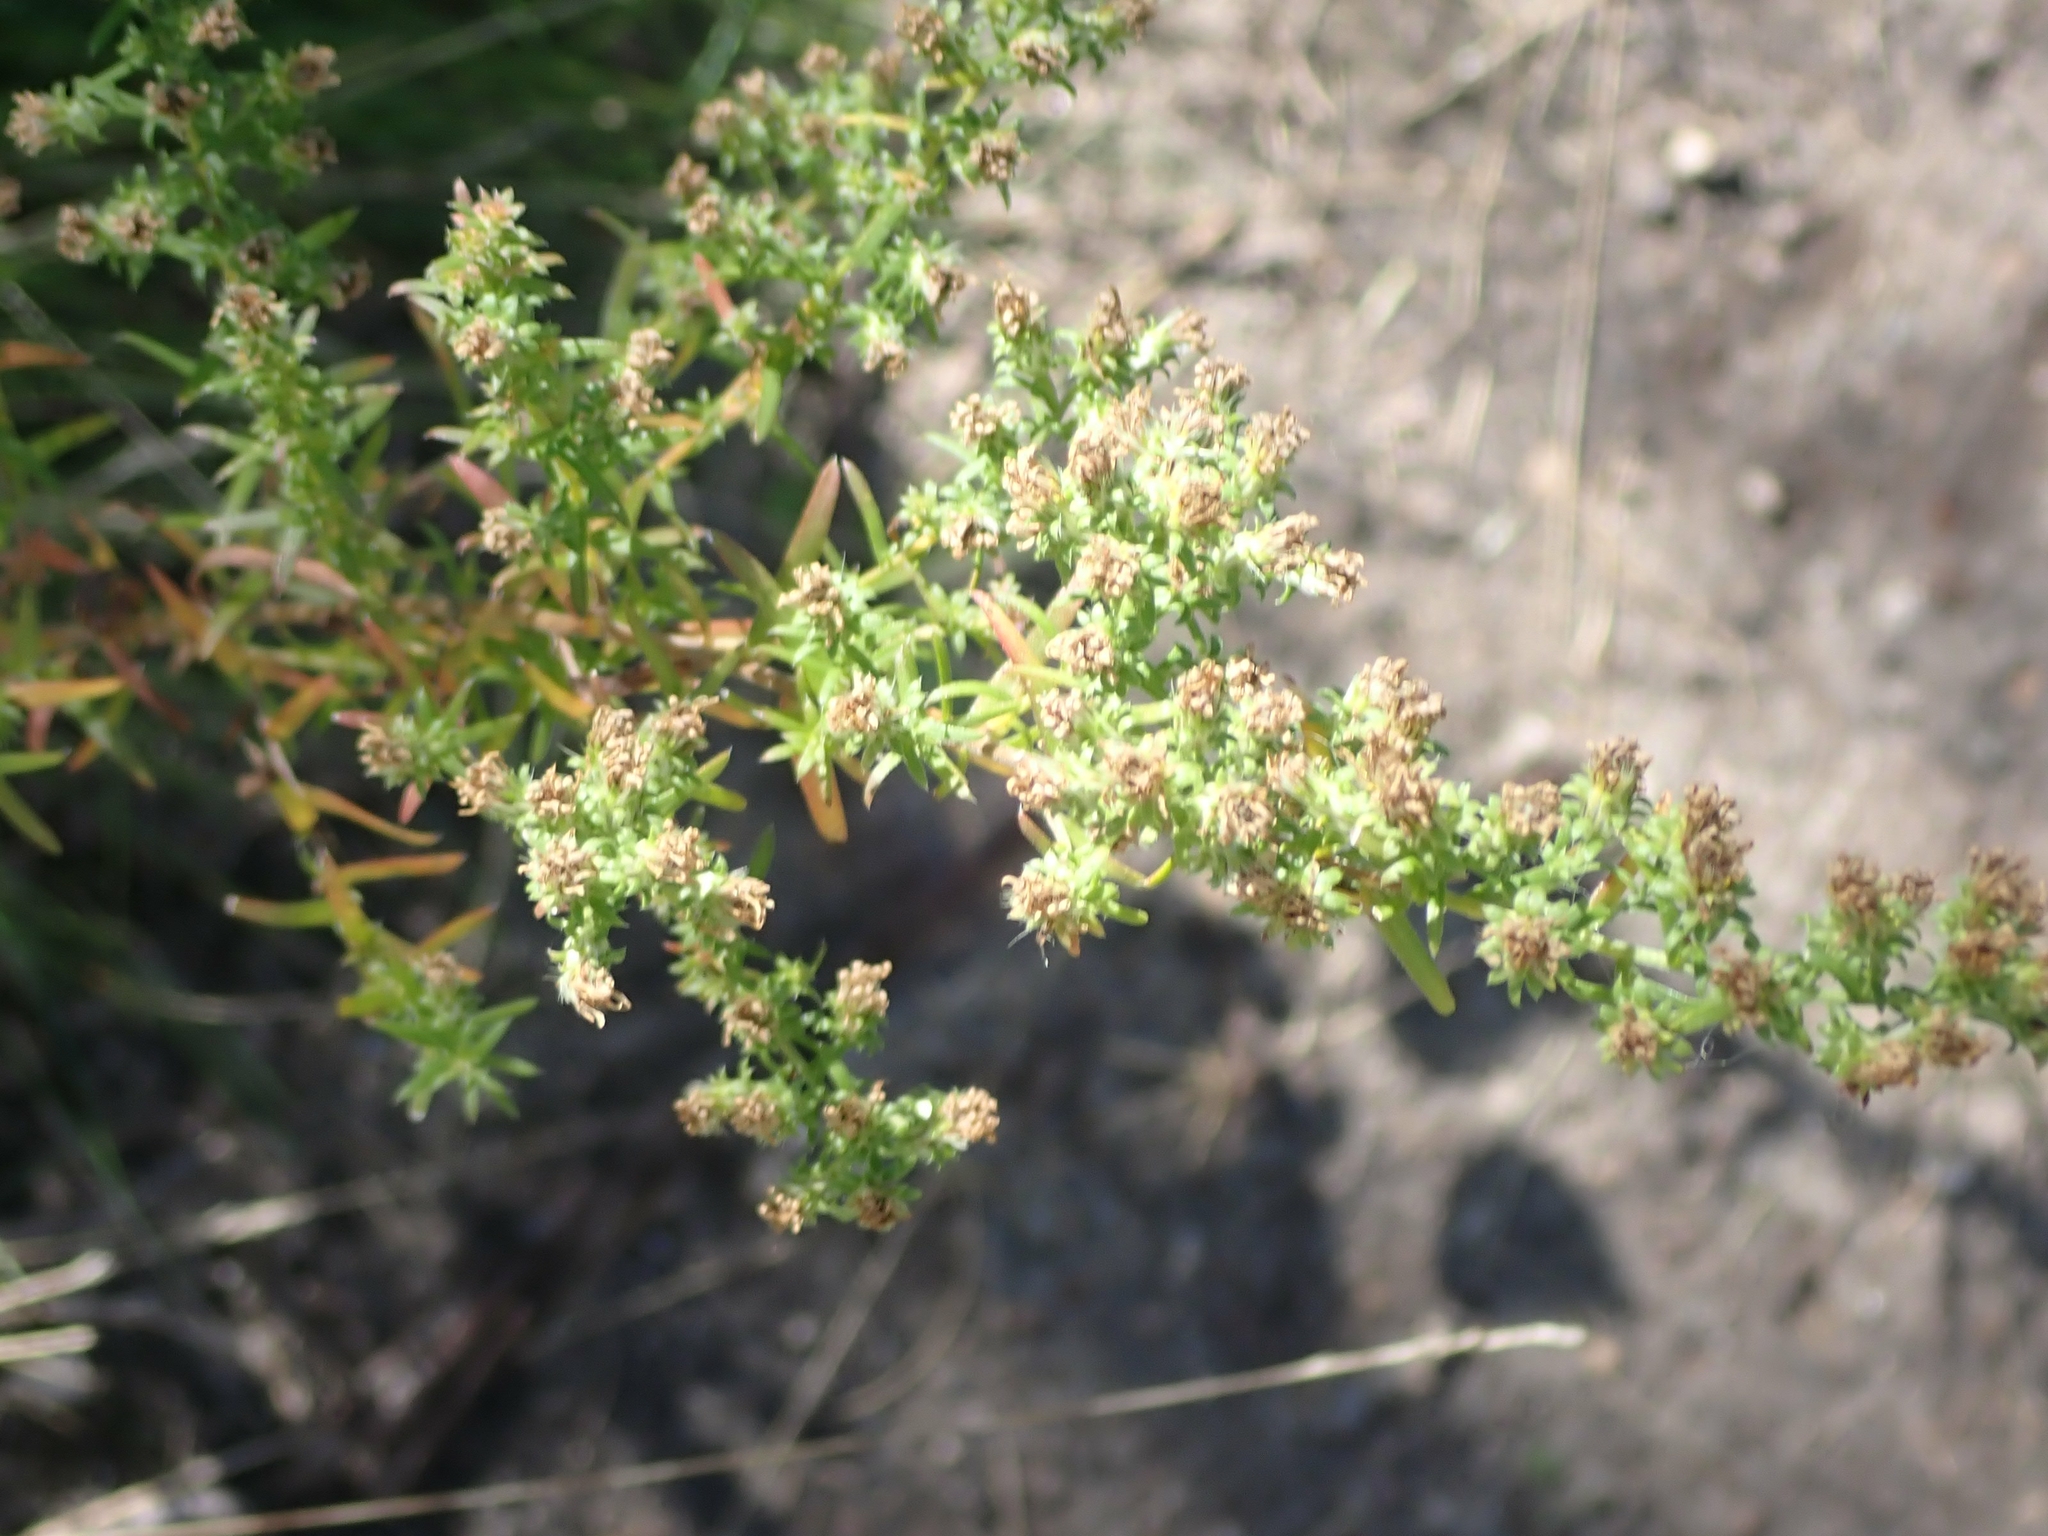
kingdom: Plantae
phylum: Tracheophyta
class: Magnoliopsida
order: Asterales
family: Asteraceae
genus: Symphyotrichum
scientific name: Symphyotrichum ericoides
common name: Heath aster
